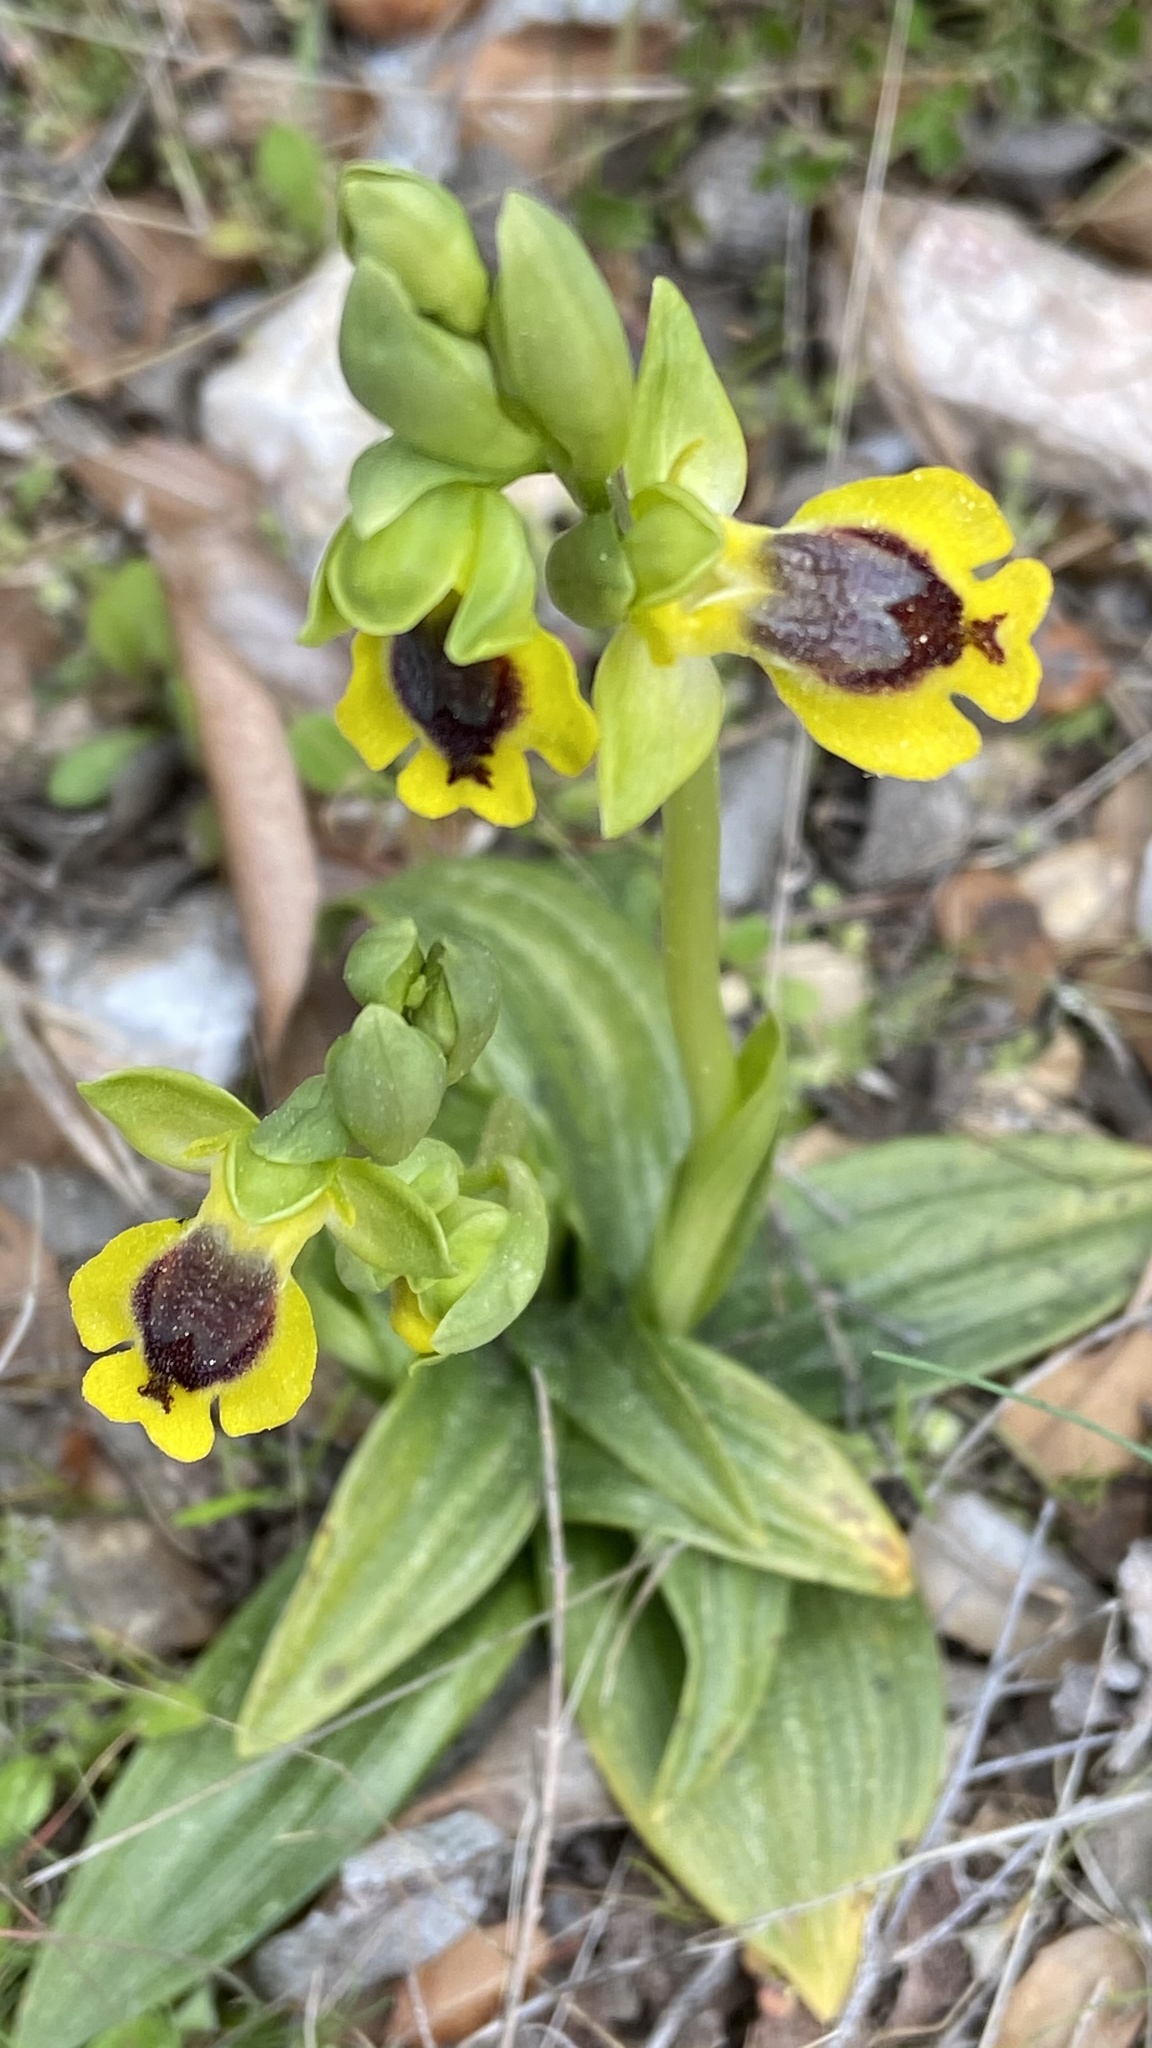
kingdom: Plantae
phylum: Tracheophyta
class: Liliopsida
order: Asparagales
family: Orchidaceae
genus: Ophrys
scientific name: Ophrys lutea
